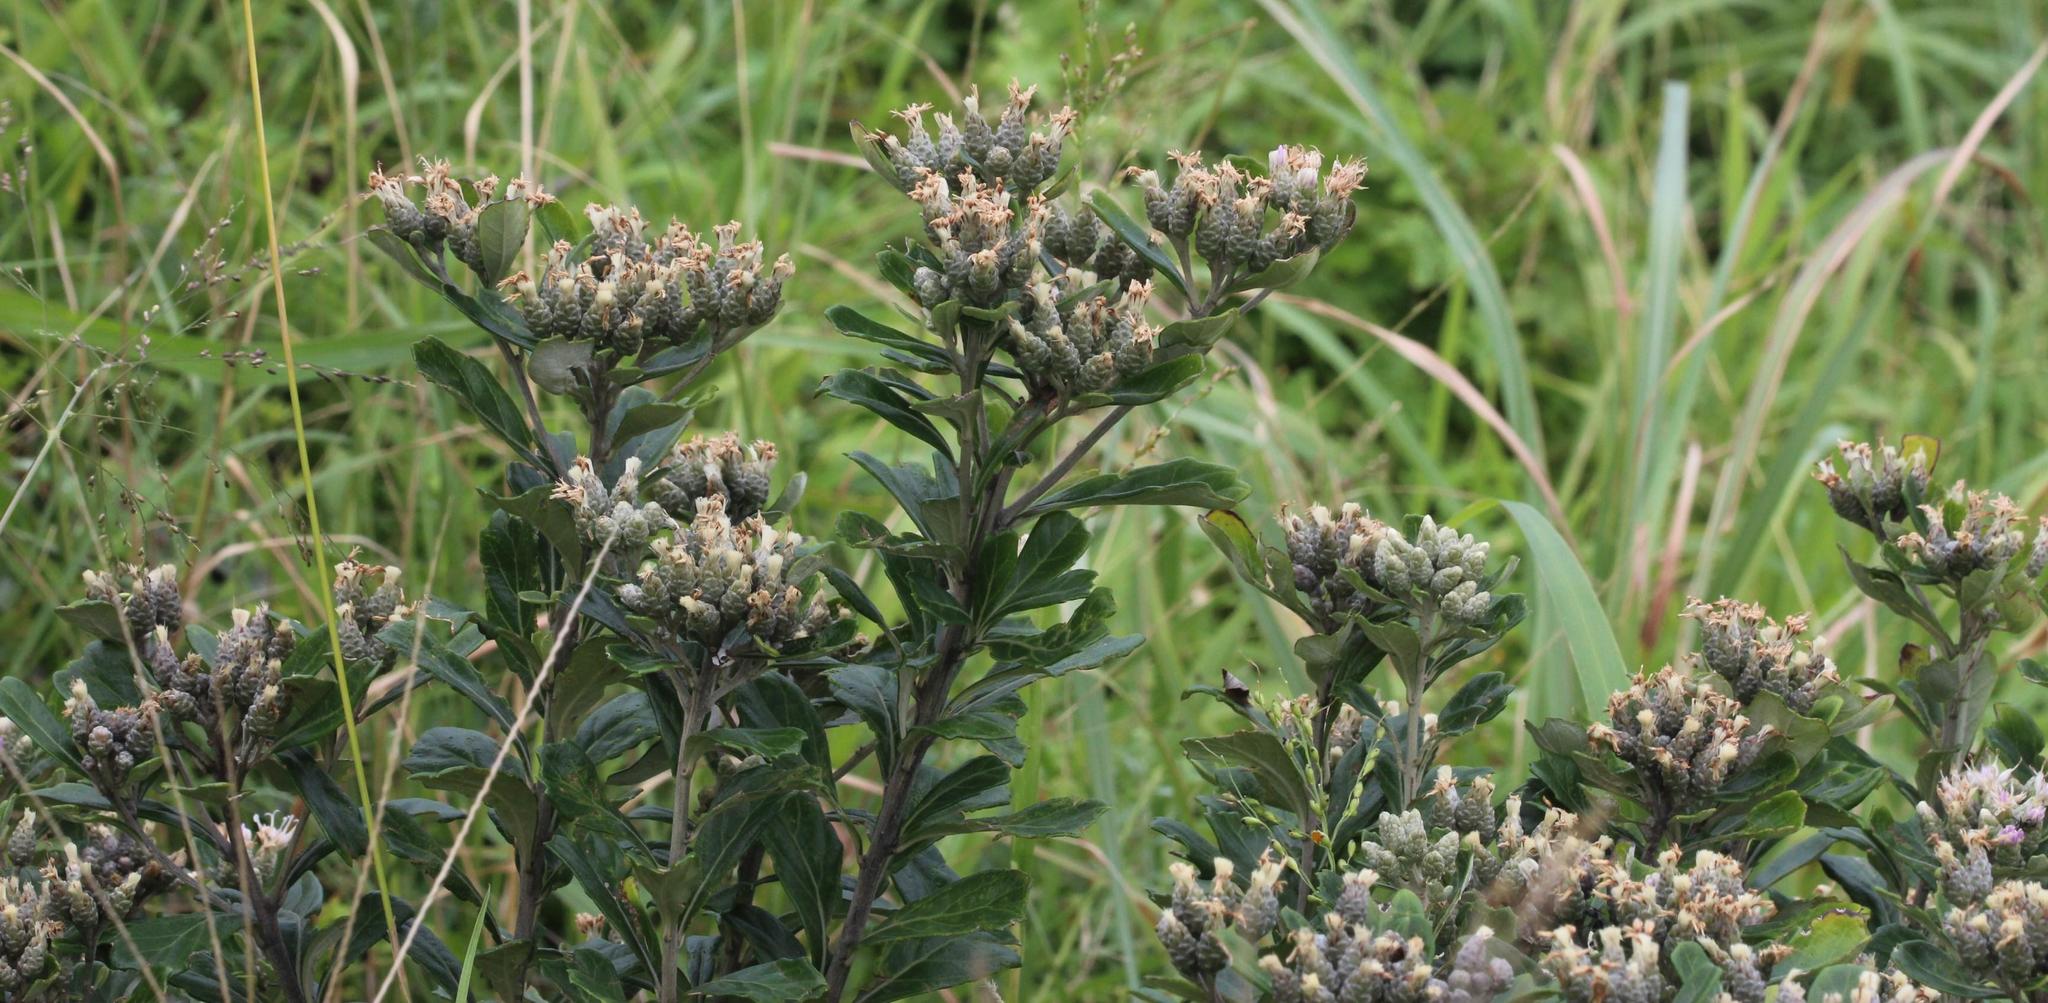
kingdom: Plantae
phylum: Tracheophyta
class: Magnoliopsida
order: Asterales
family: Asteraceae
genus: Gymnanthemum
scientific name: Gymnanthemum corymbosum
